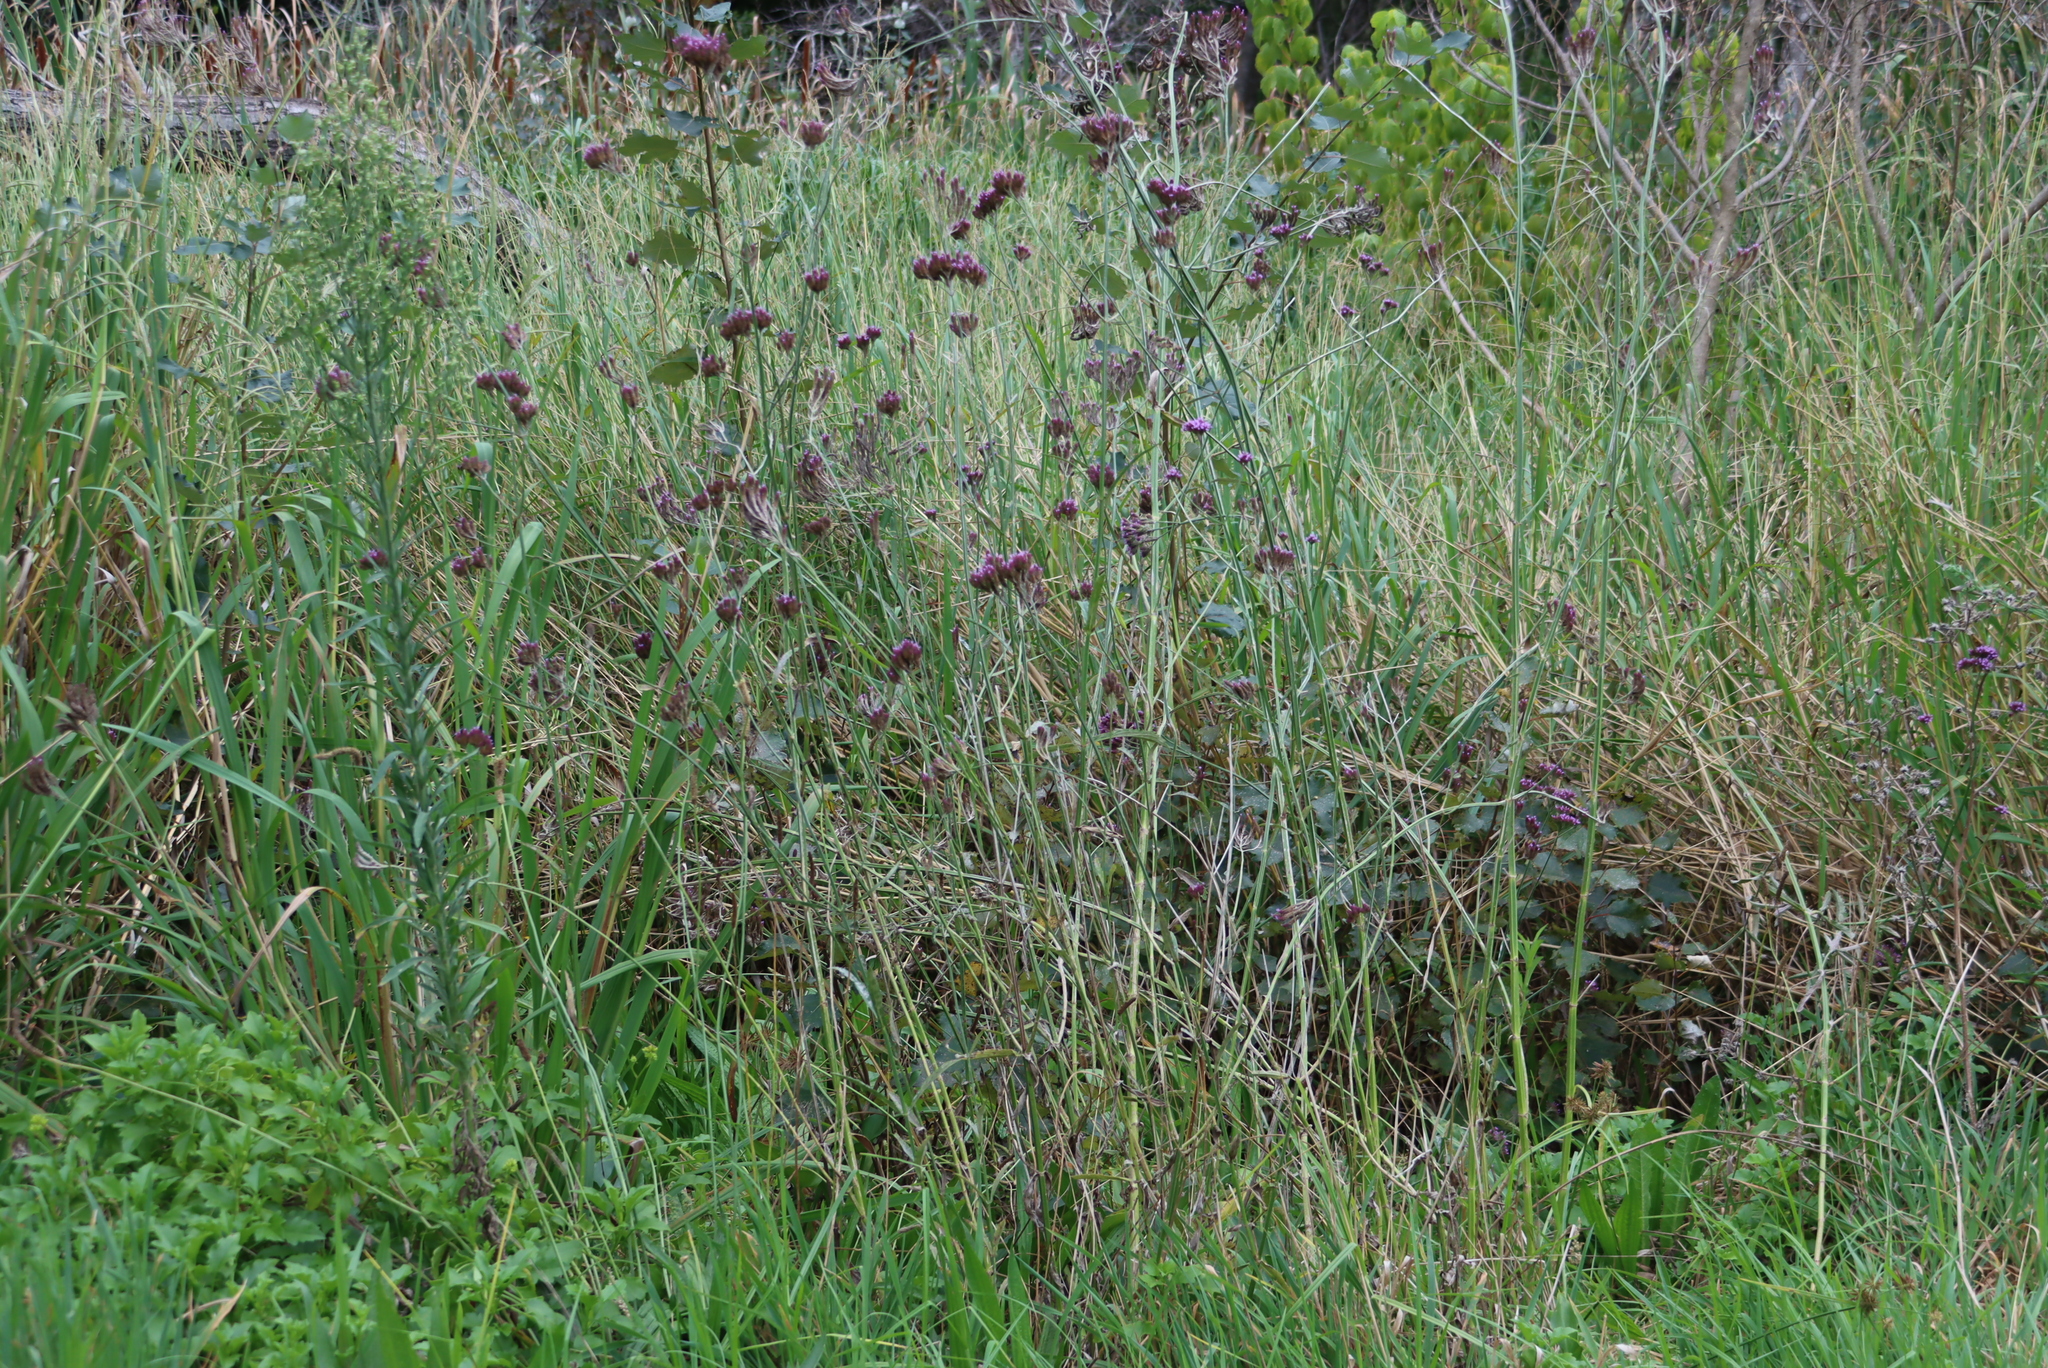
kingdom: Plantae
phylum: Tracheophyta
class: Magnoliopsida
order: Lamiales
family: Verbenaceae
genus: Verbena
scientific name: Verbena bonariensis
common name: Purpletop vervain
